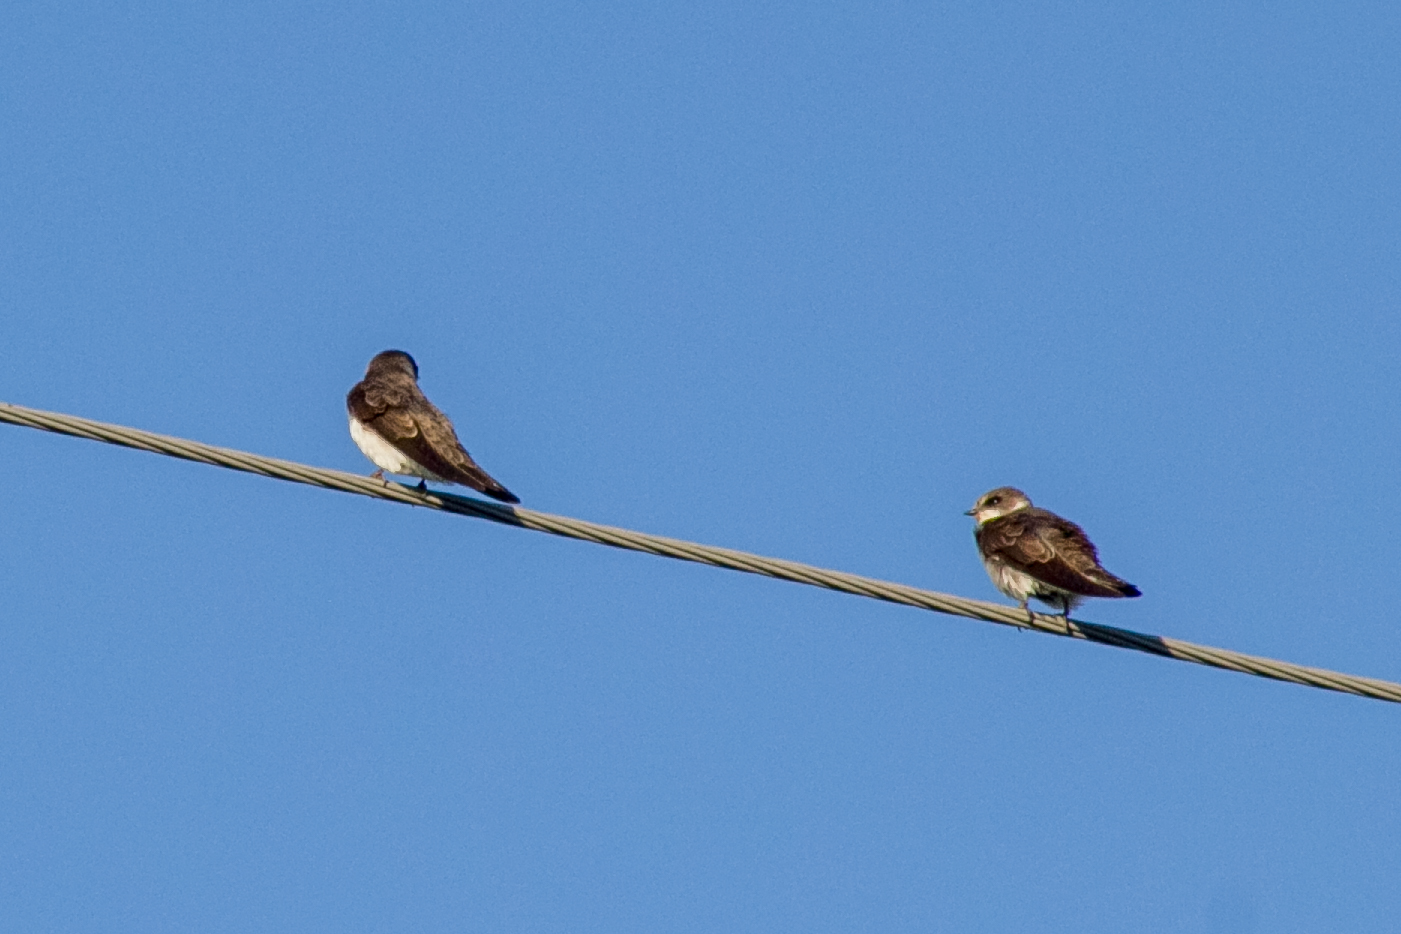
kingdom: Animalia
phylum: Chordata
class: Aves
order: Passeriformes
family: Hirundinidae
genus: Riparia
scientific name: Riparia riparia
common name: Sand martin
